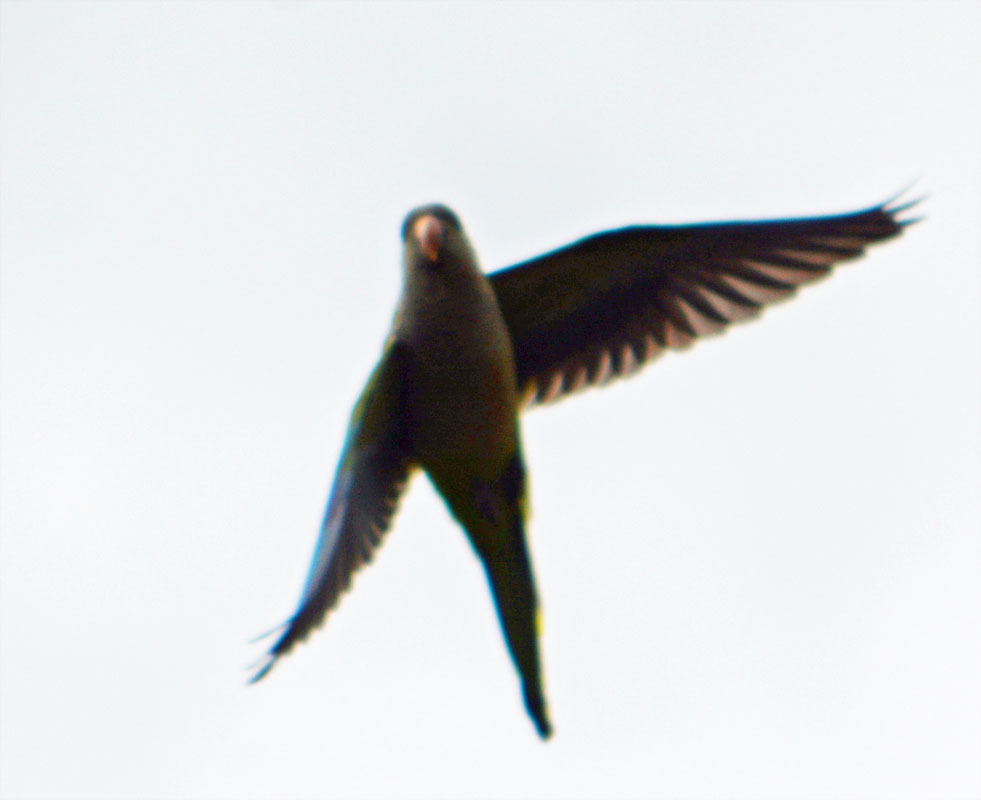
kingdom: Animalia
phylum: Chordata
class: Aves
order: Psittaciformes
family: Psittacidae
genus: Myiopsitta
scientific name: Myiopsitta monachus
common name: Monk parakeet
